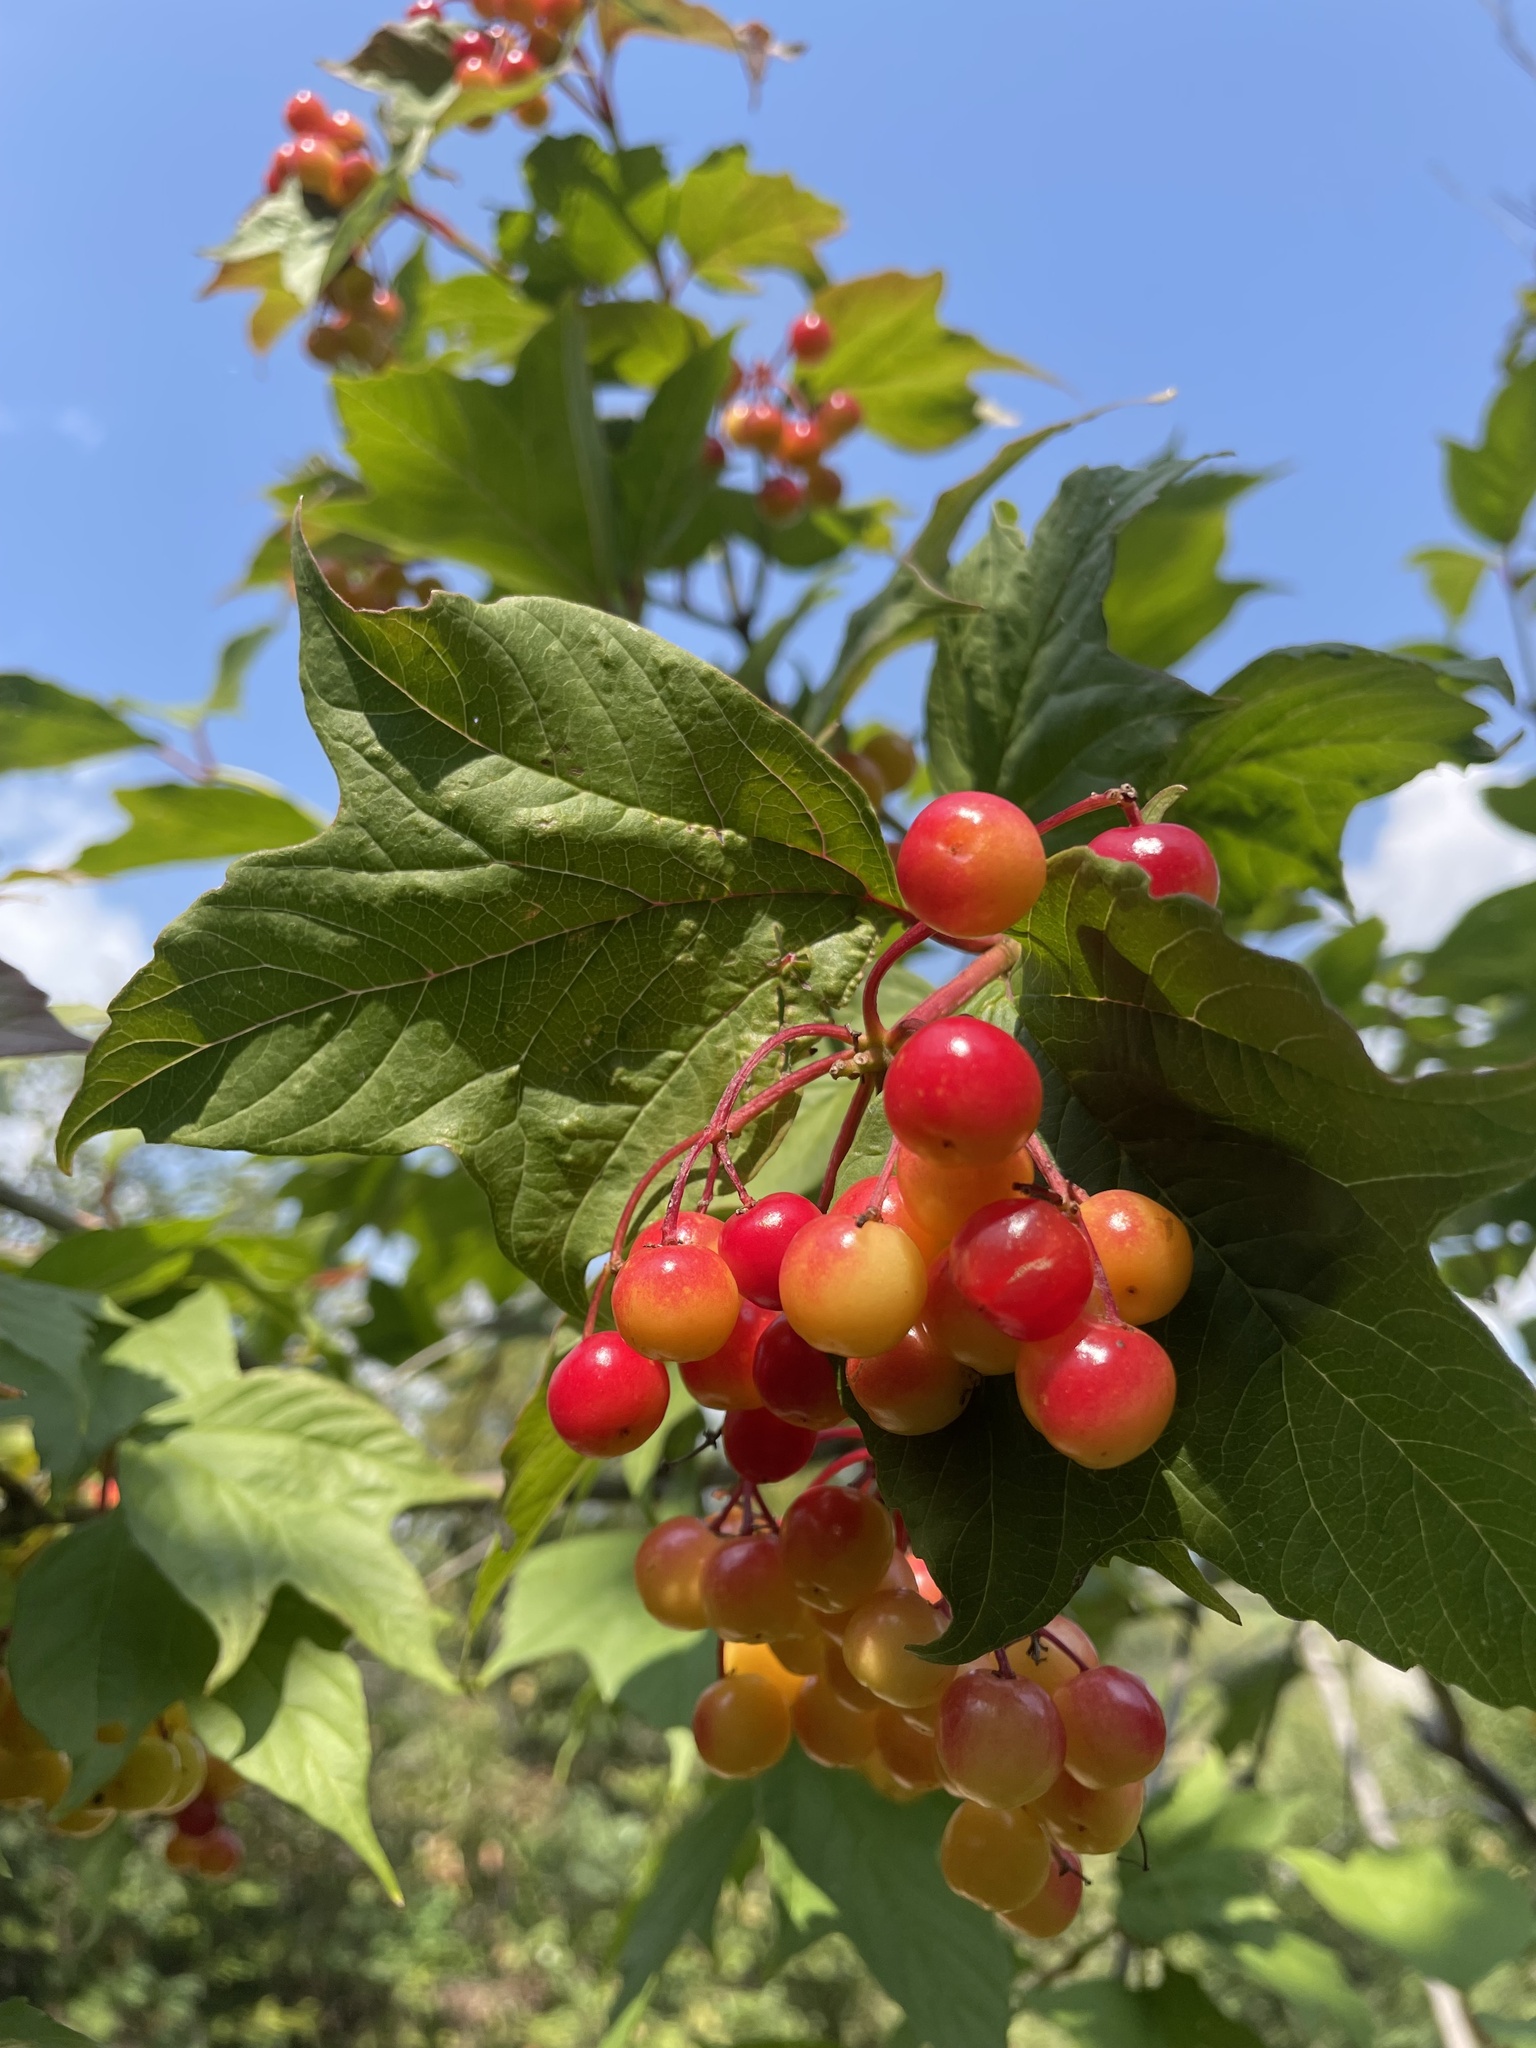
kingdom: Plantae
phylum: Tracheophyta
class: Magnoliopsida
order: Dipsacales
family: Viburnaceae
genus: Viburnum
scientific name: Viburnum opulus
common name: Guelder-rose
